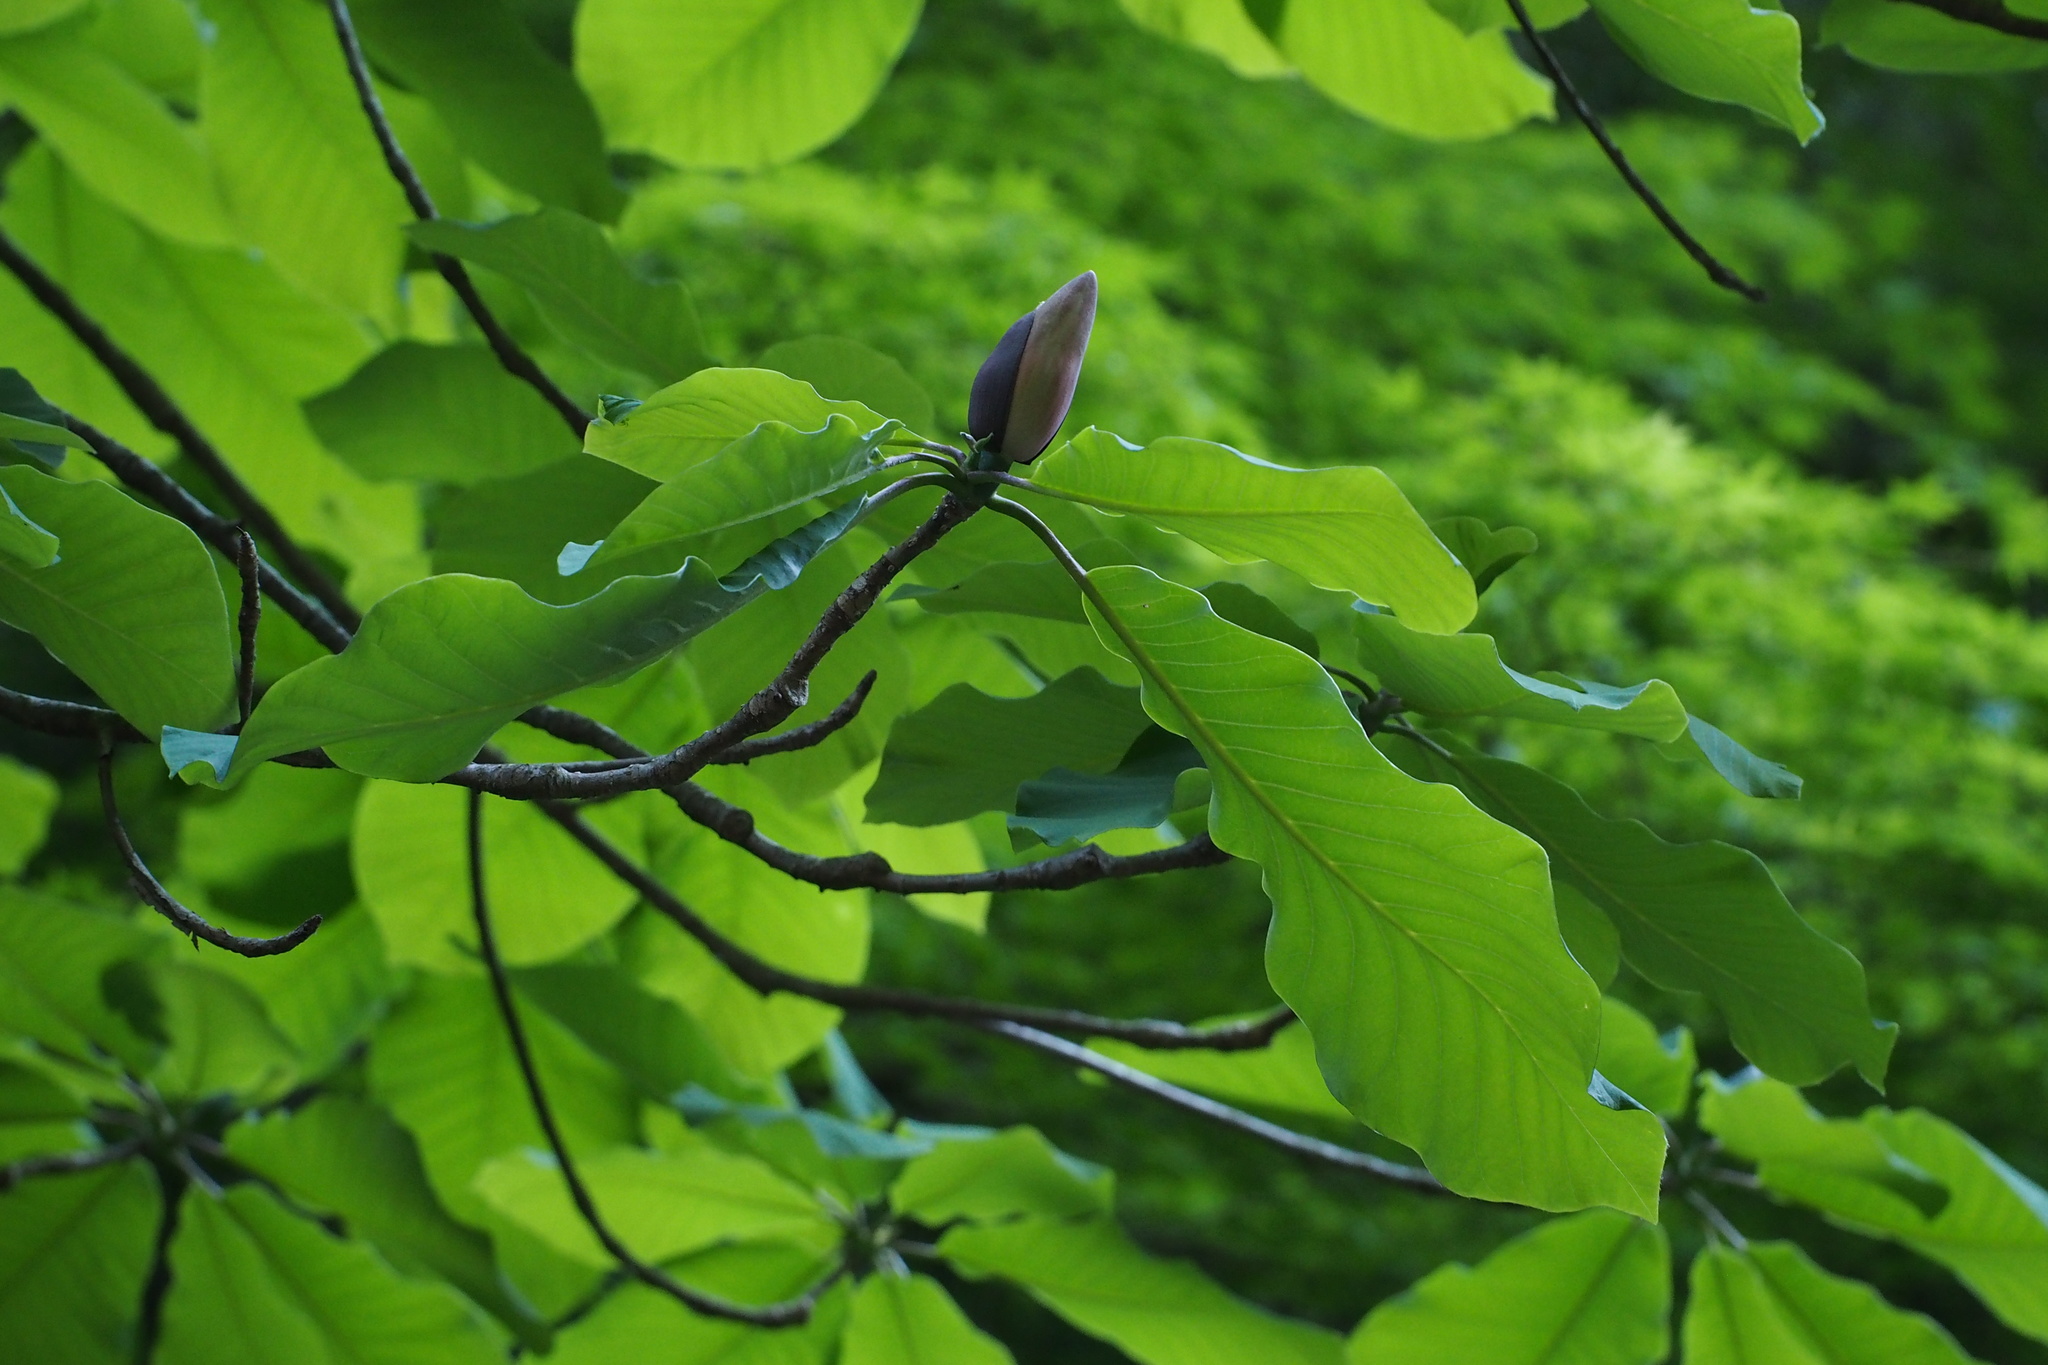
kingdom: Plantae
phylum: Tracheophyta
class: Magnoliopsida
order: Magnoliales
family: Magnoliaceae
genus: Magnolia
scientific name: Magnolia obovata
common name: Japanese whitebark magnolia
